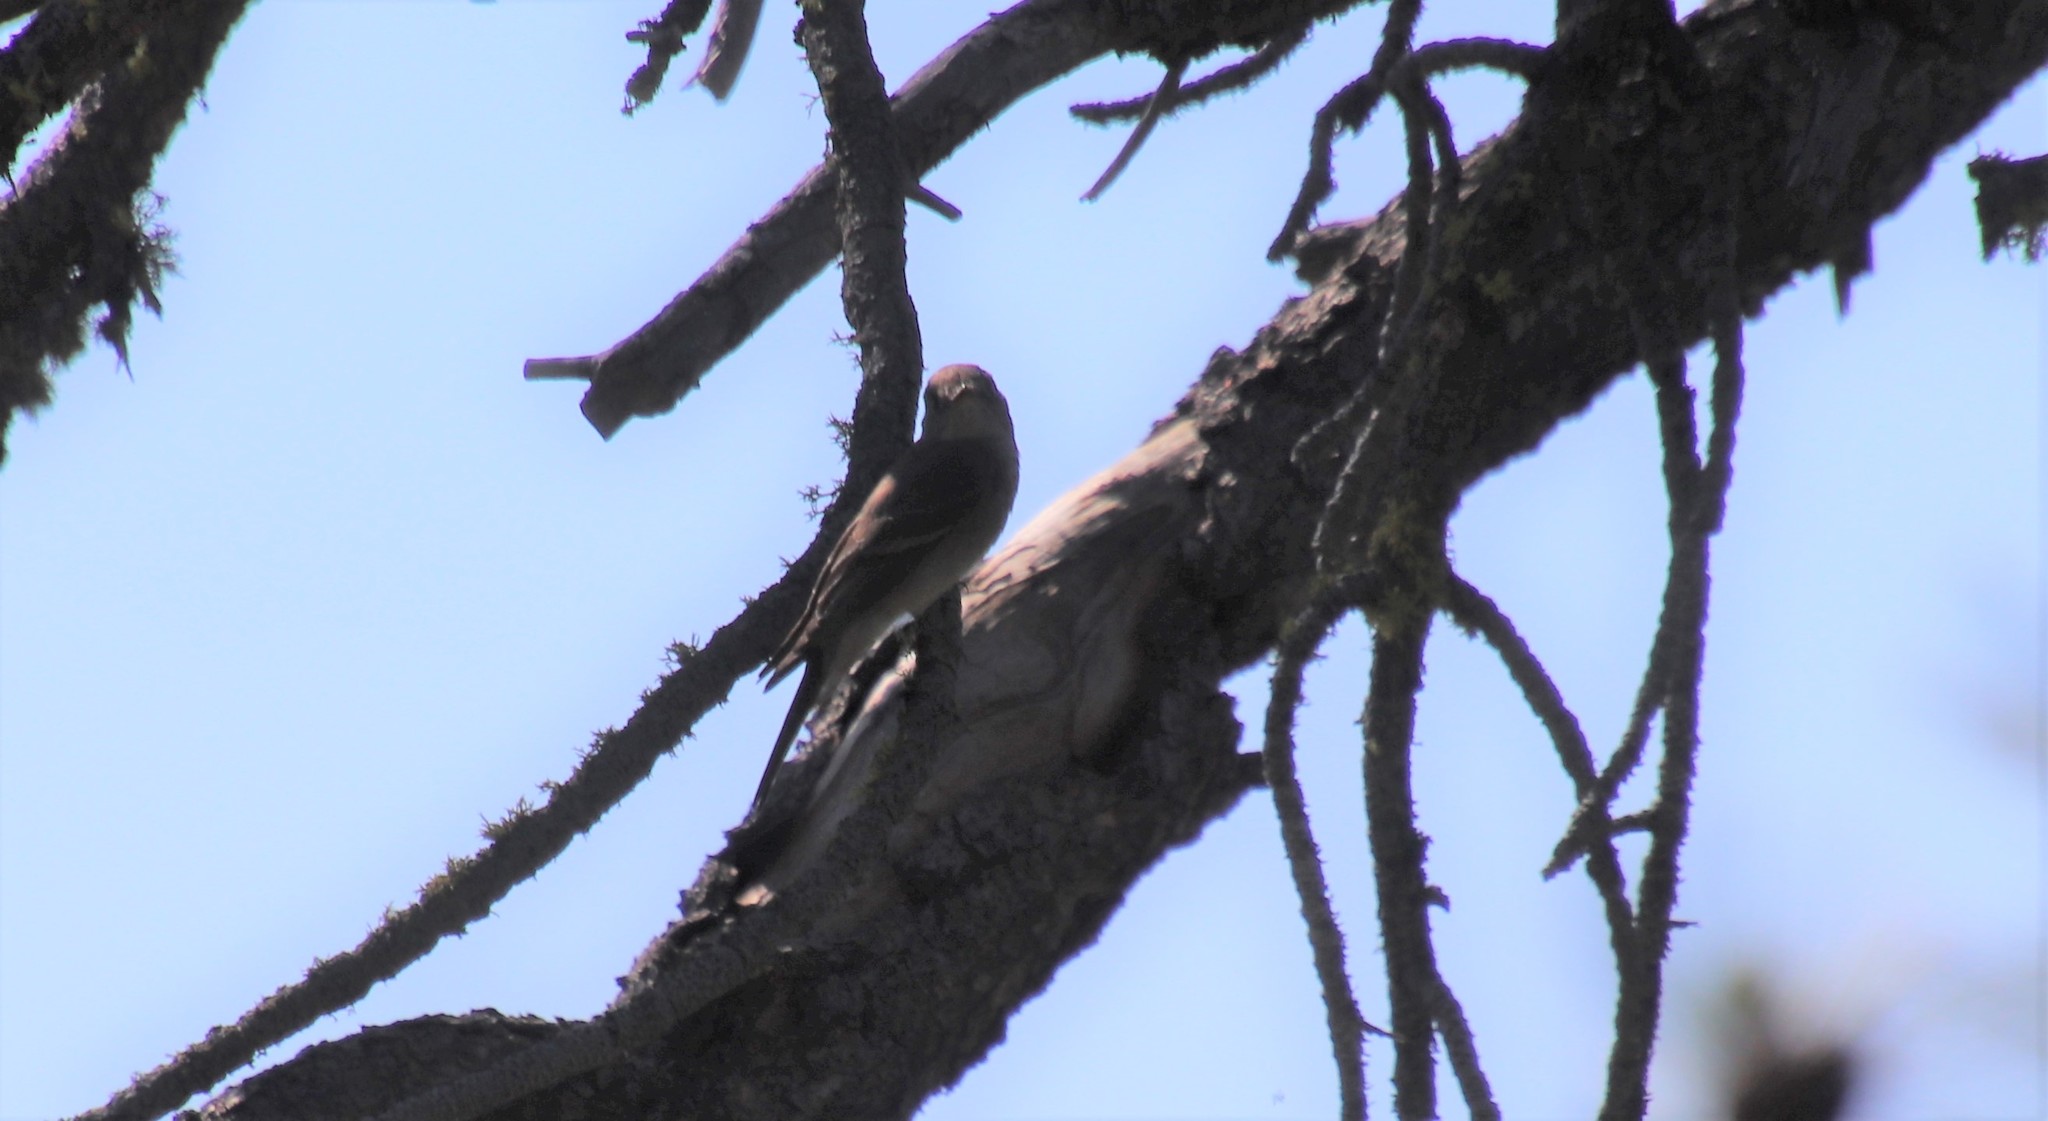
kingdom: Animalia
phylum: Chordata
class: Aves
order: Passeriformes
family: Tyrannidae
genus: Contopus
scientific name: Contopus sordidulus
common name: Western wood-pewee
